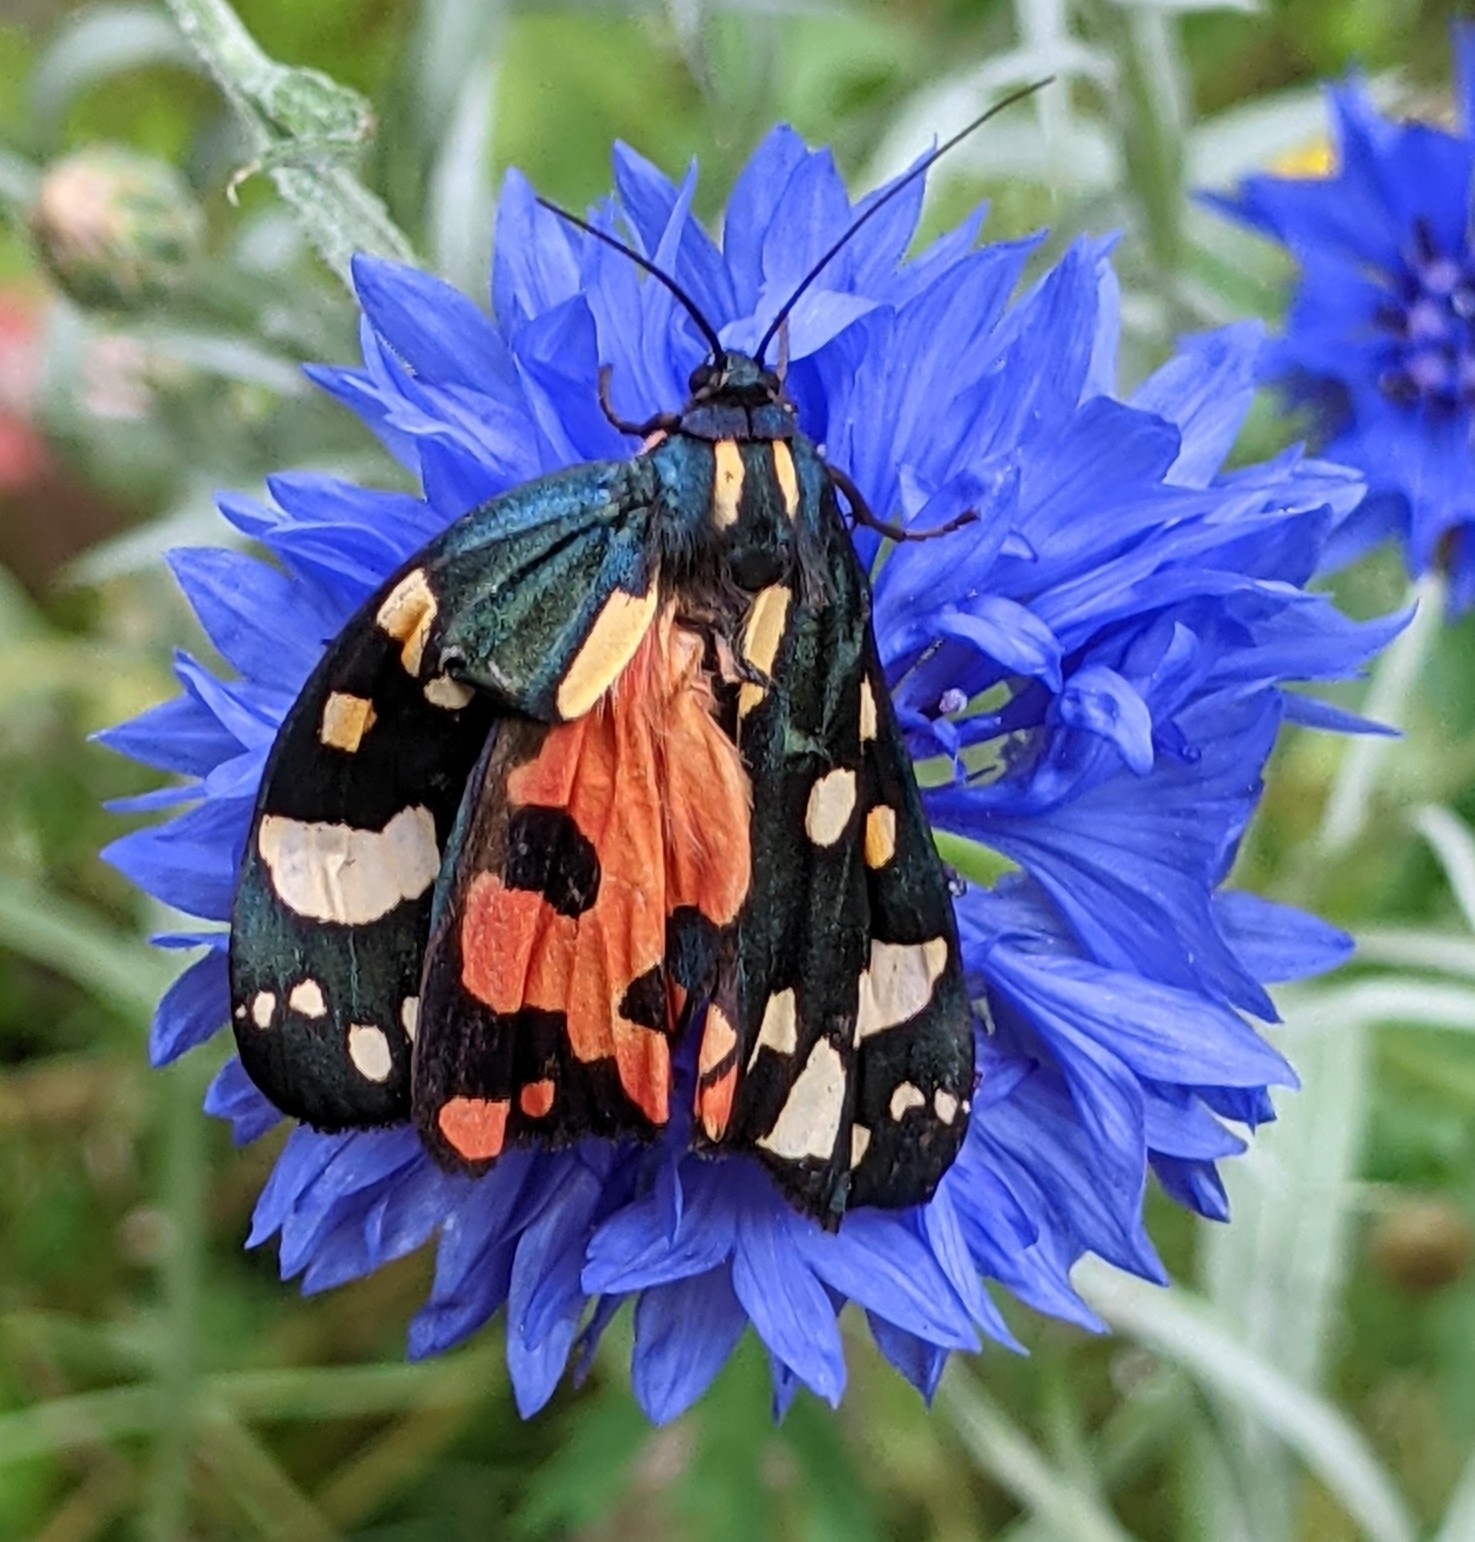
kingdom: Animalia
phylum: Arthropoda
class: Insecta
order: Lepidoptera
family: Erebidae
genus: Callimorpha
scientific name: Callimorpha dominula
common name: Scarlet tiger
